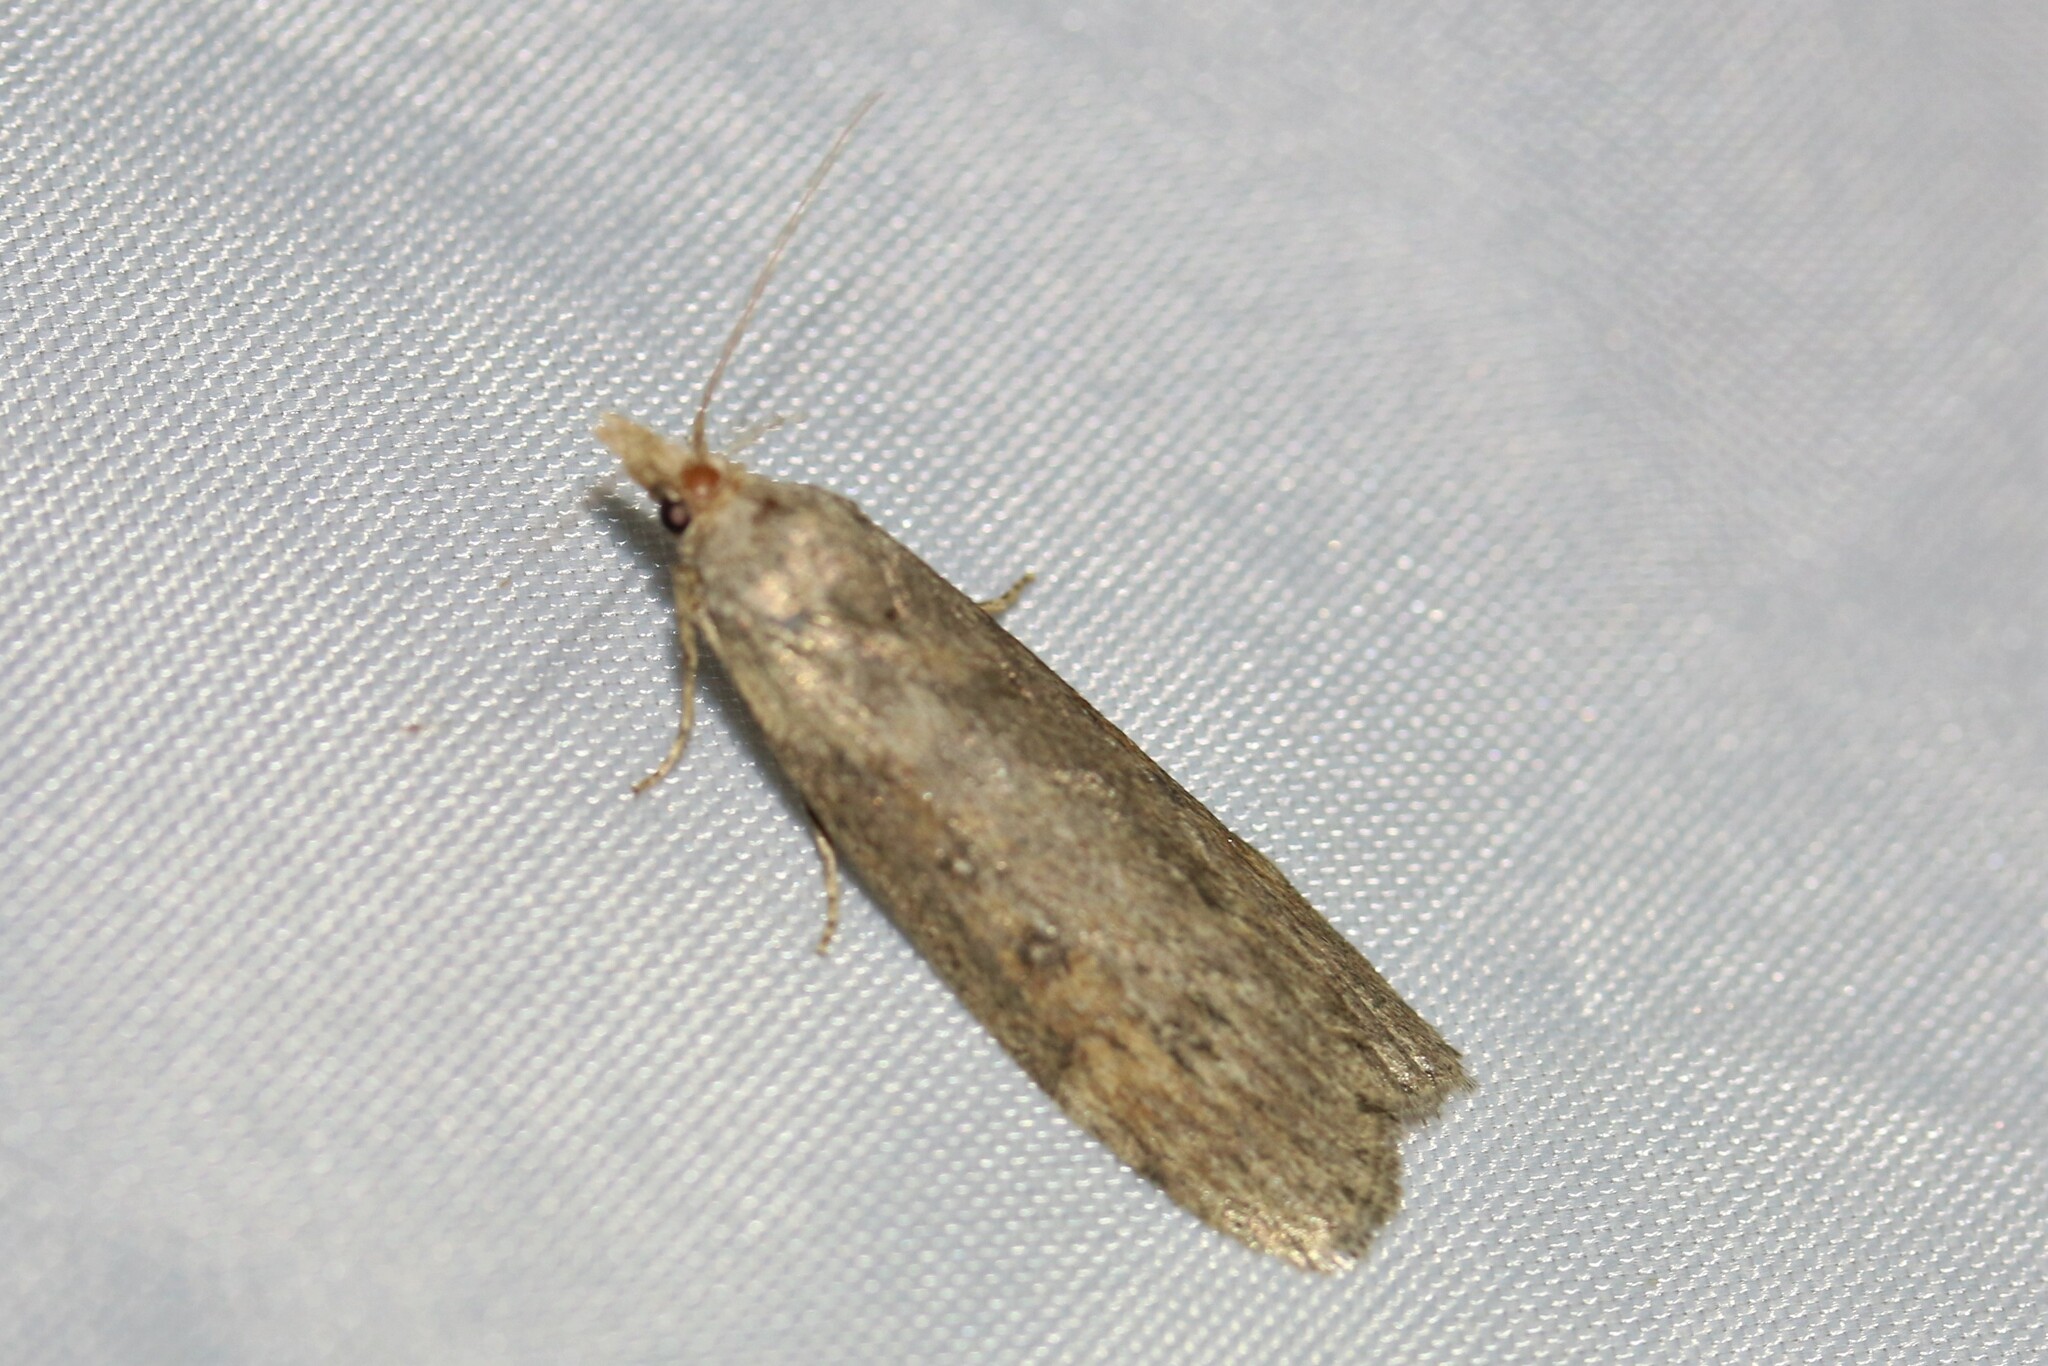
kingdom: Animalia
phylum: Arthropoda
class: Insecta
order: Lepidoptera
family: Pyralidae
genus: Lamoria
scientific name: Lamoria anella
